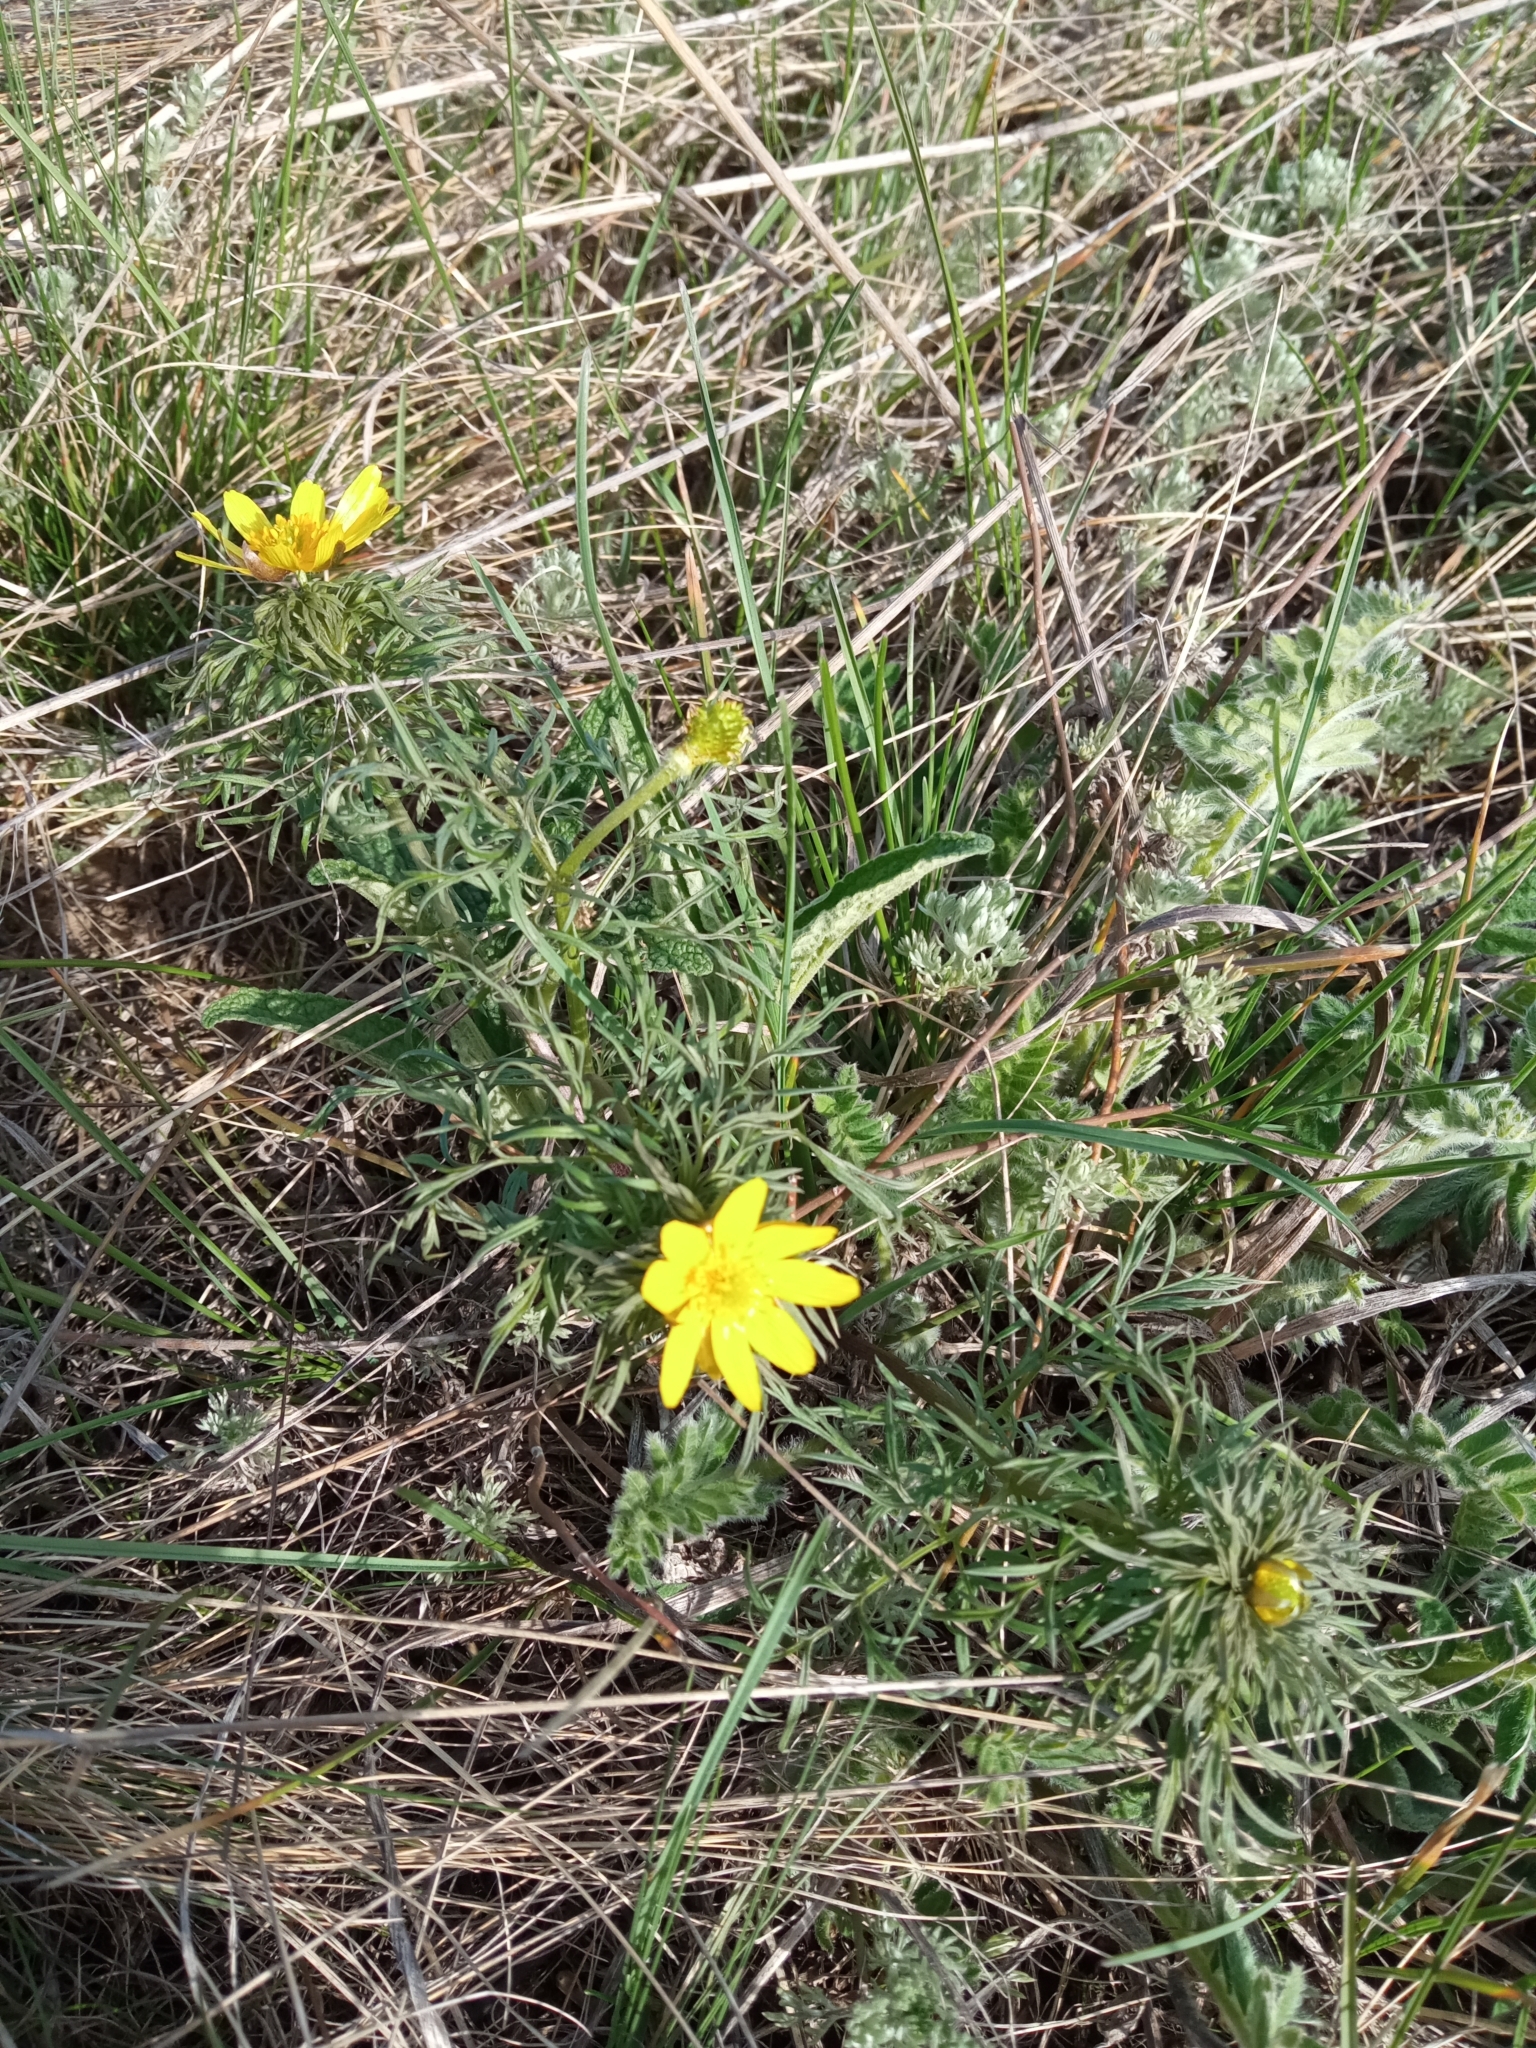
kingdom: Plantae
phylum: Tracheophyta
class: Magnoliopsida
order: Ranunculales
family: Ranunculaceae
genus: Adonis
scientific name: Adonis volgensis
